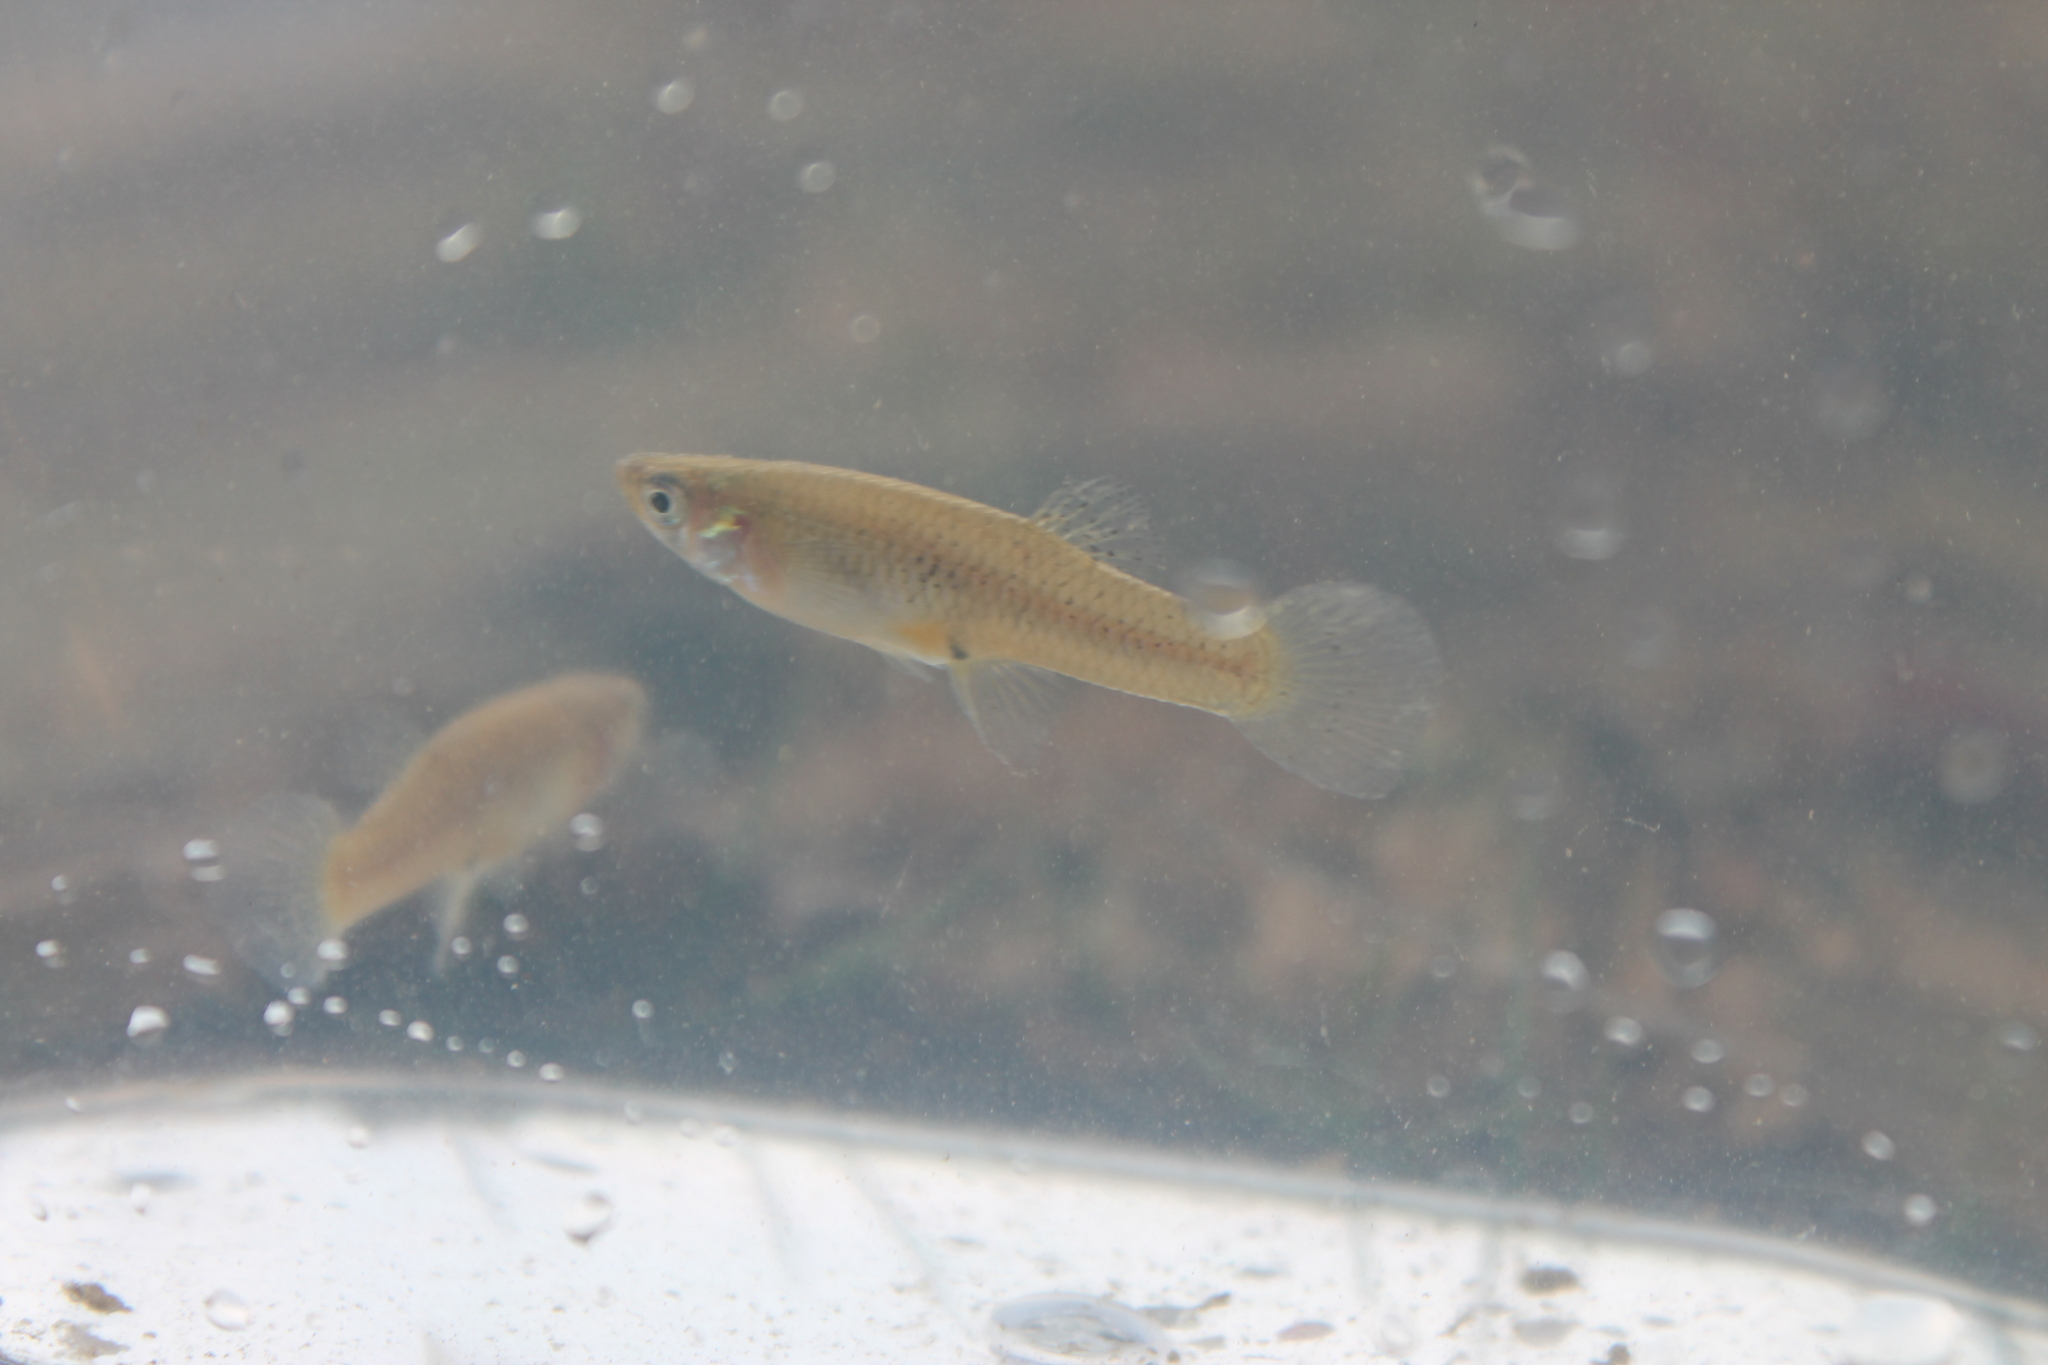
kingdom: Animalia
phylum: Chordata
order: Cyprinodontiformes
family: Poeciliidae
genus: Gambusia
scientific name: Gambusia affinis
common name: Mosquitofish
